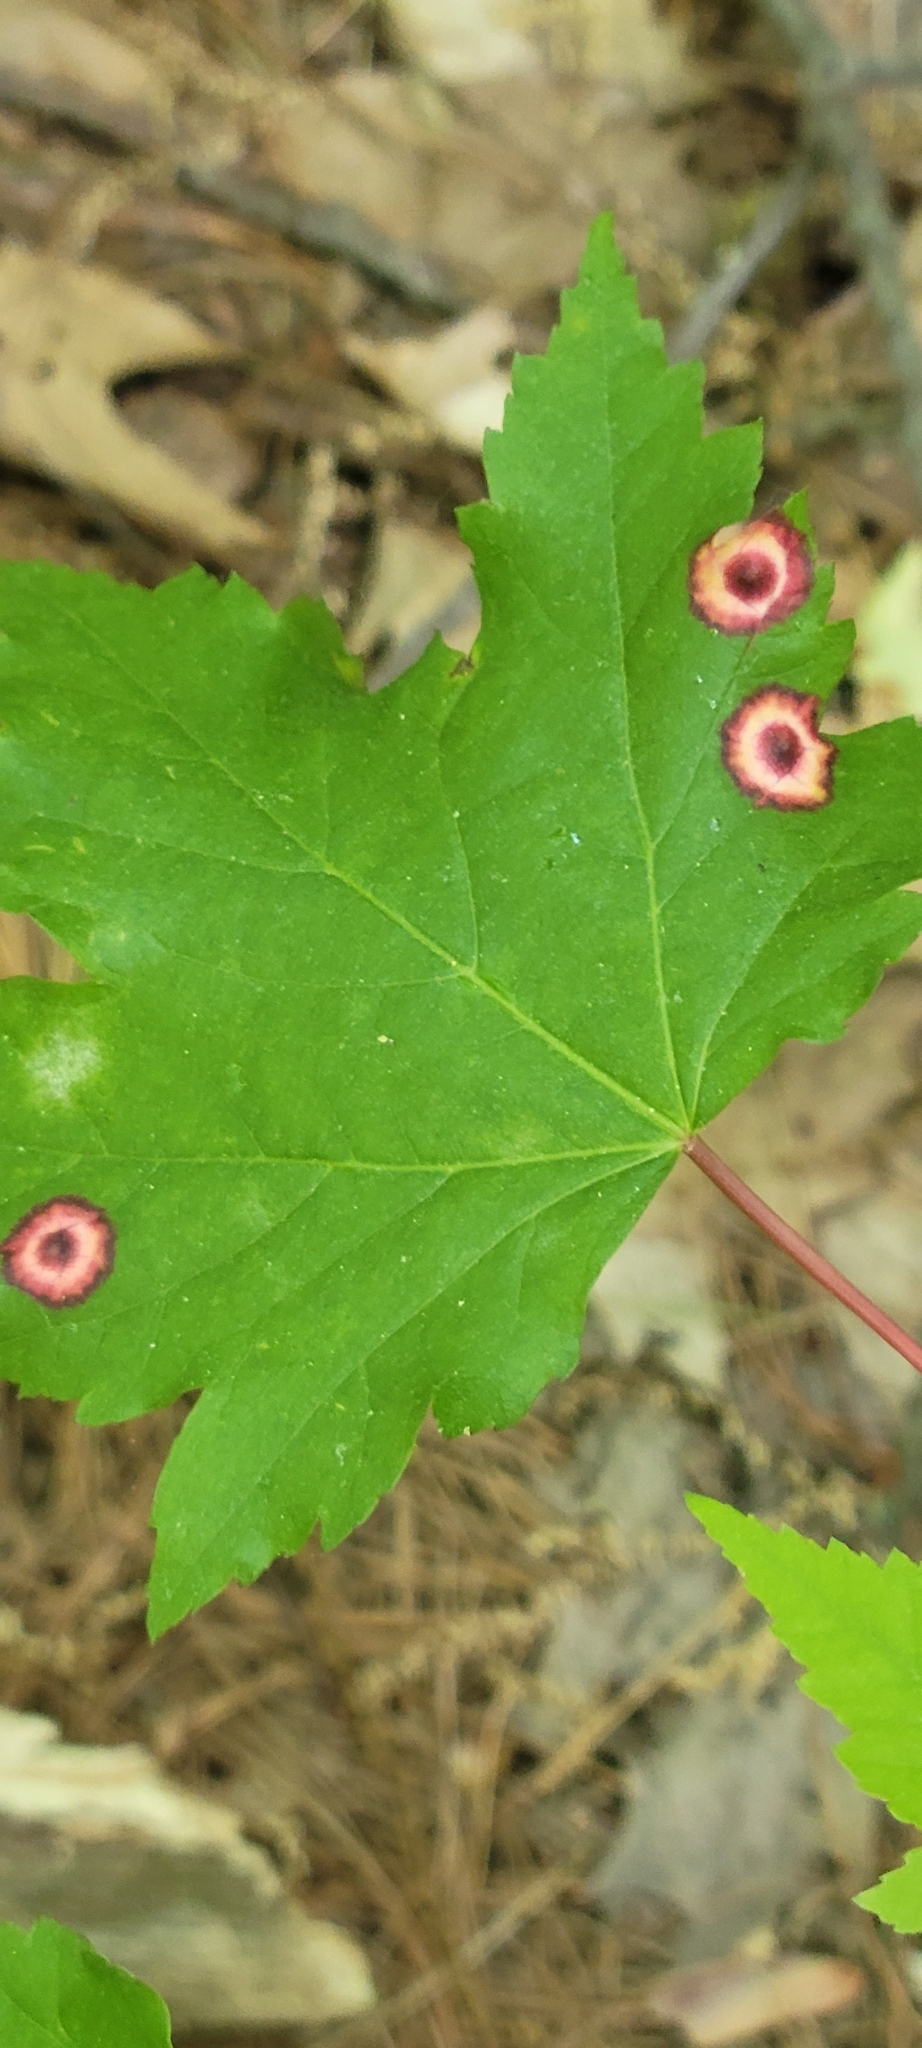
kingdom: Animalia
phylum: Arthropoda
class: Insecta
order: Diptera
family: Cecidomyiidae
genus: Acericecis
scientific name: Acericecis ocellaris
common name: Ocellate gall midge
